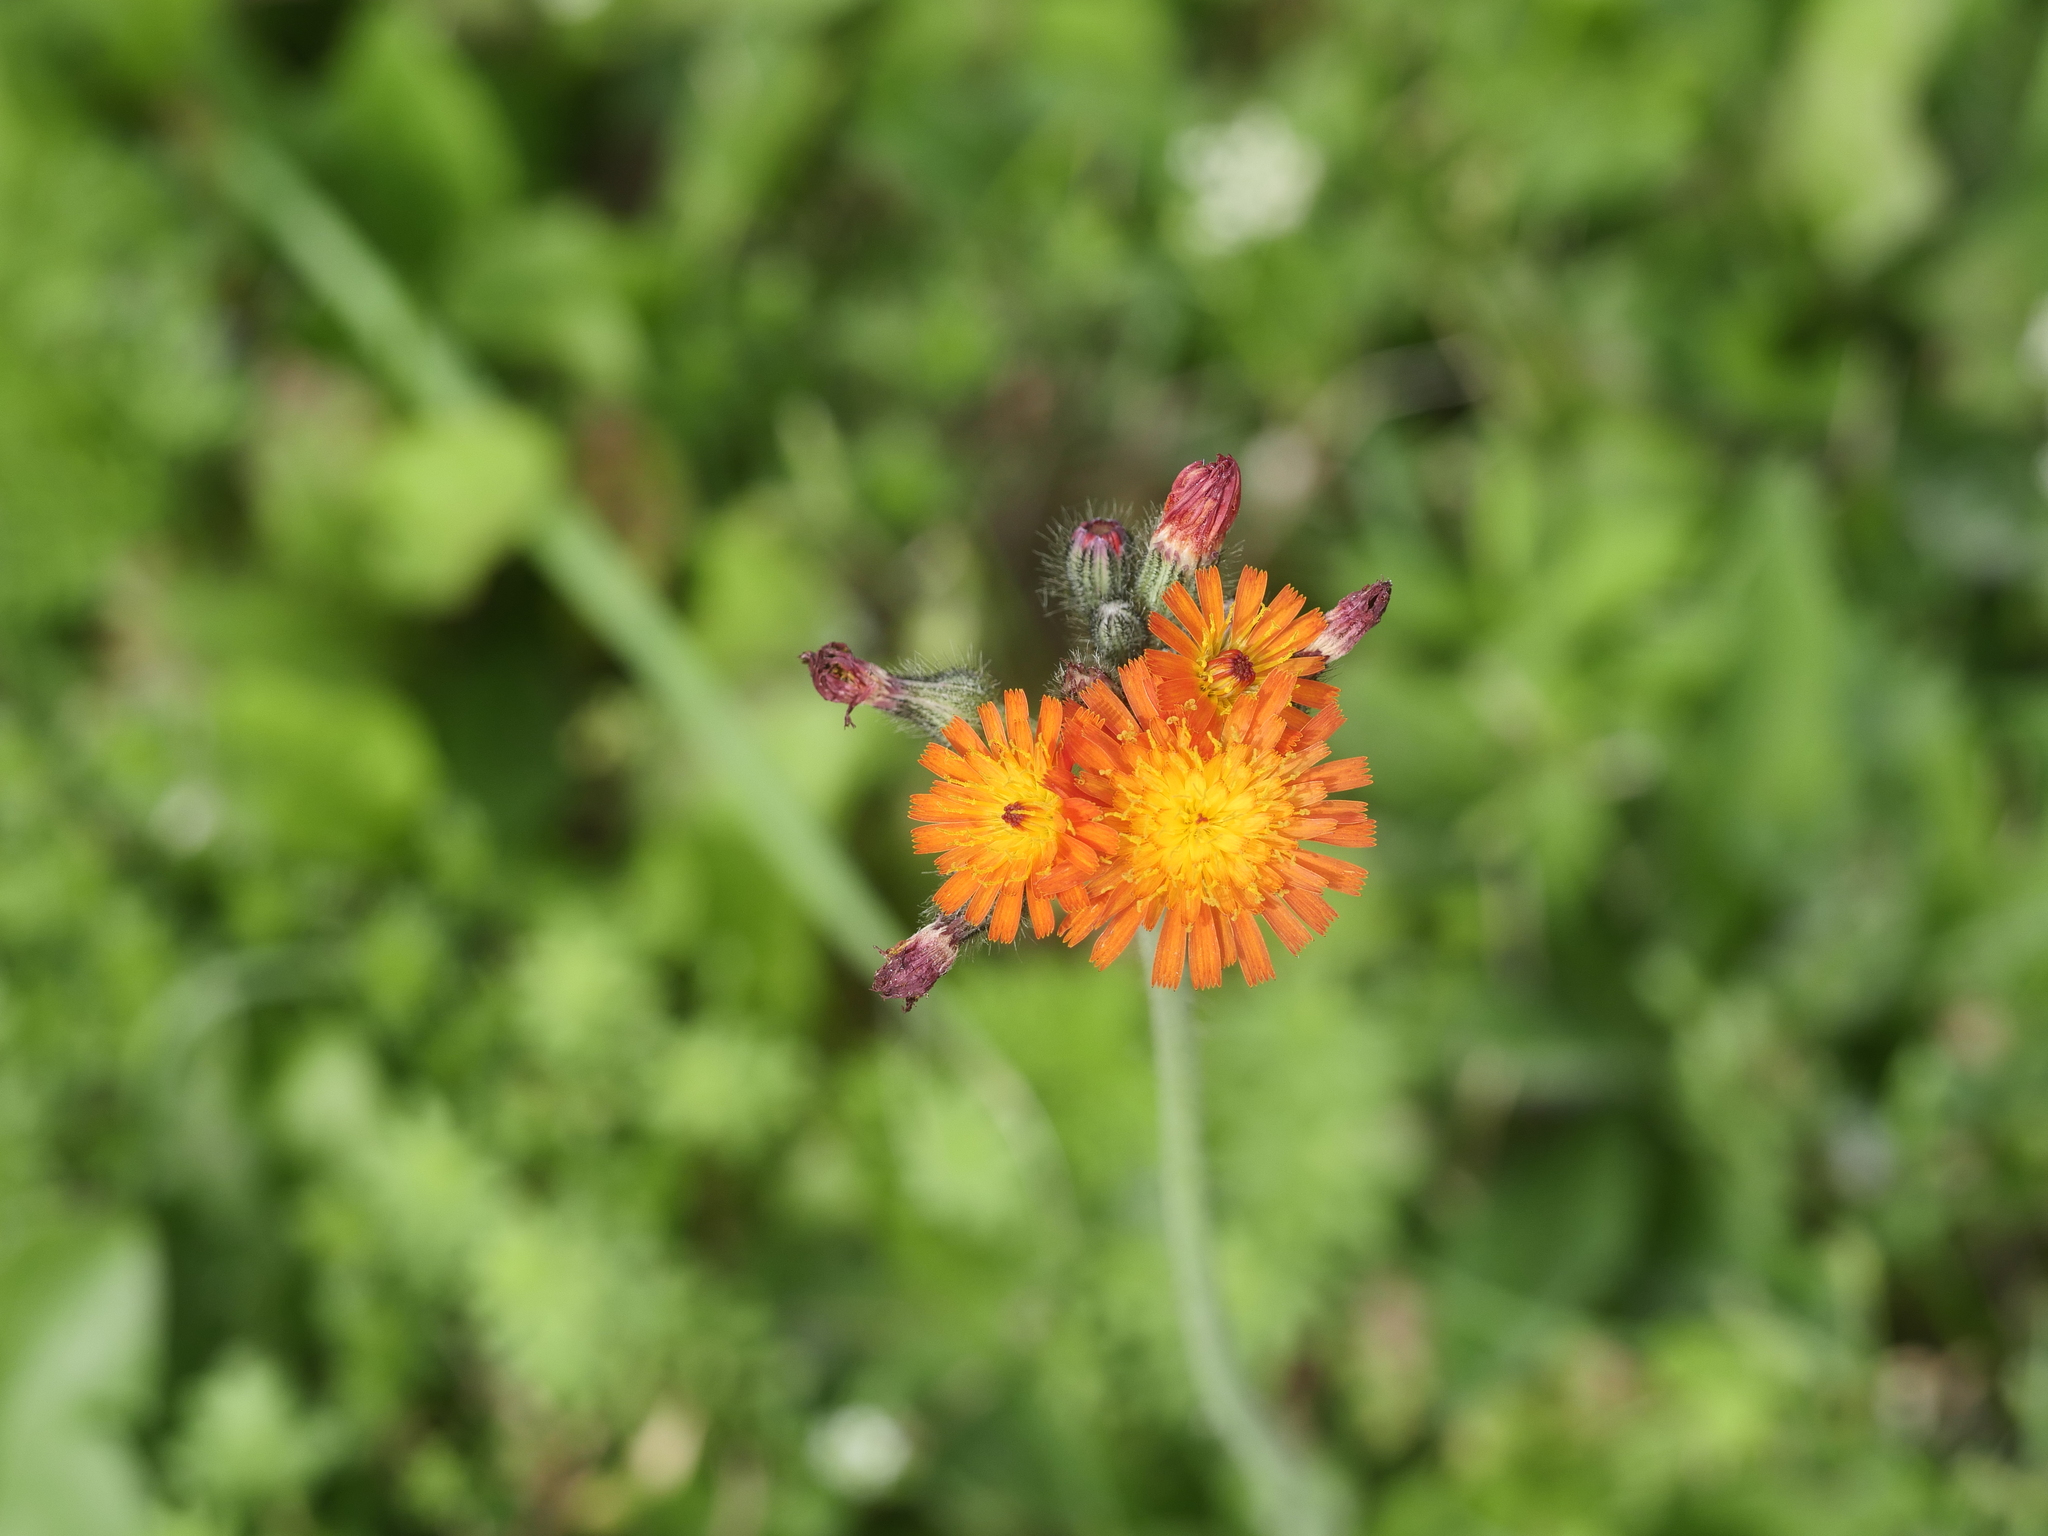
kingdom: Plantae
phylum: Tracheophyta
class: Magnoliopsida
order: Asterales
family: Asteraceae
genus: Pilosella
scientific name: Pilosella aurantiaca
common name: Fox-and-cubs
